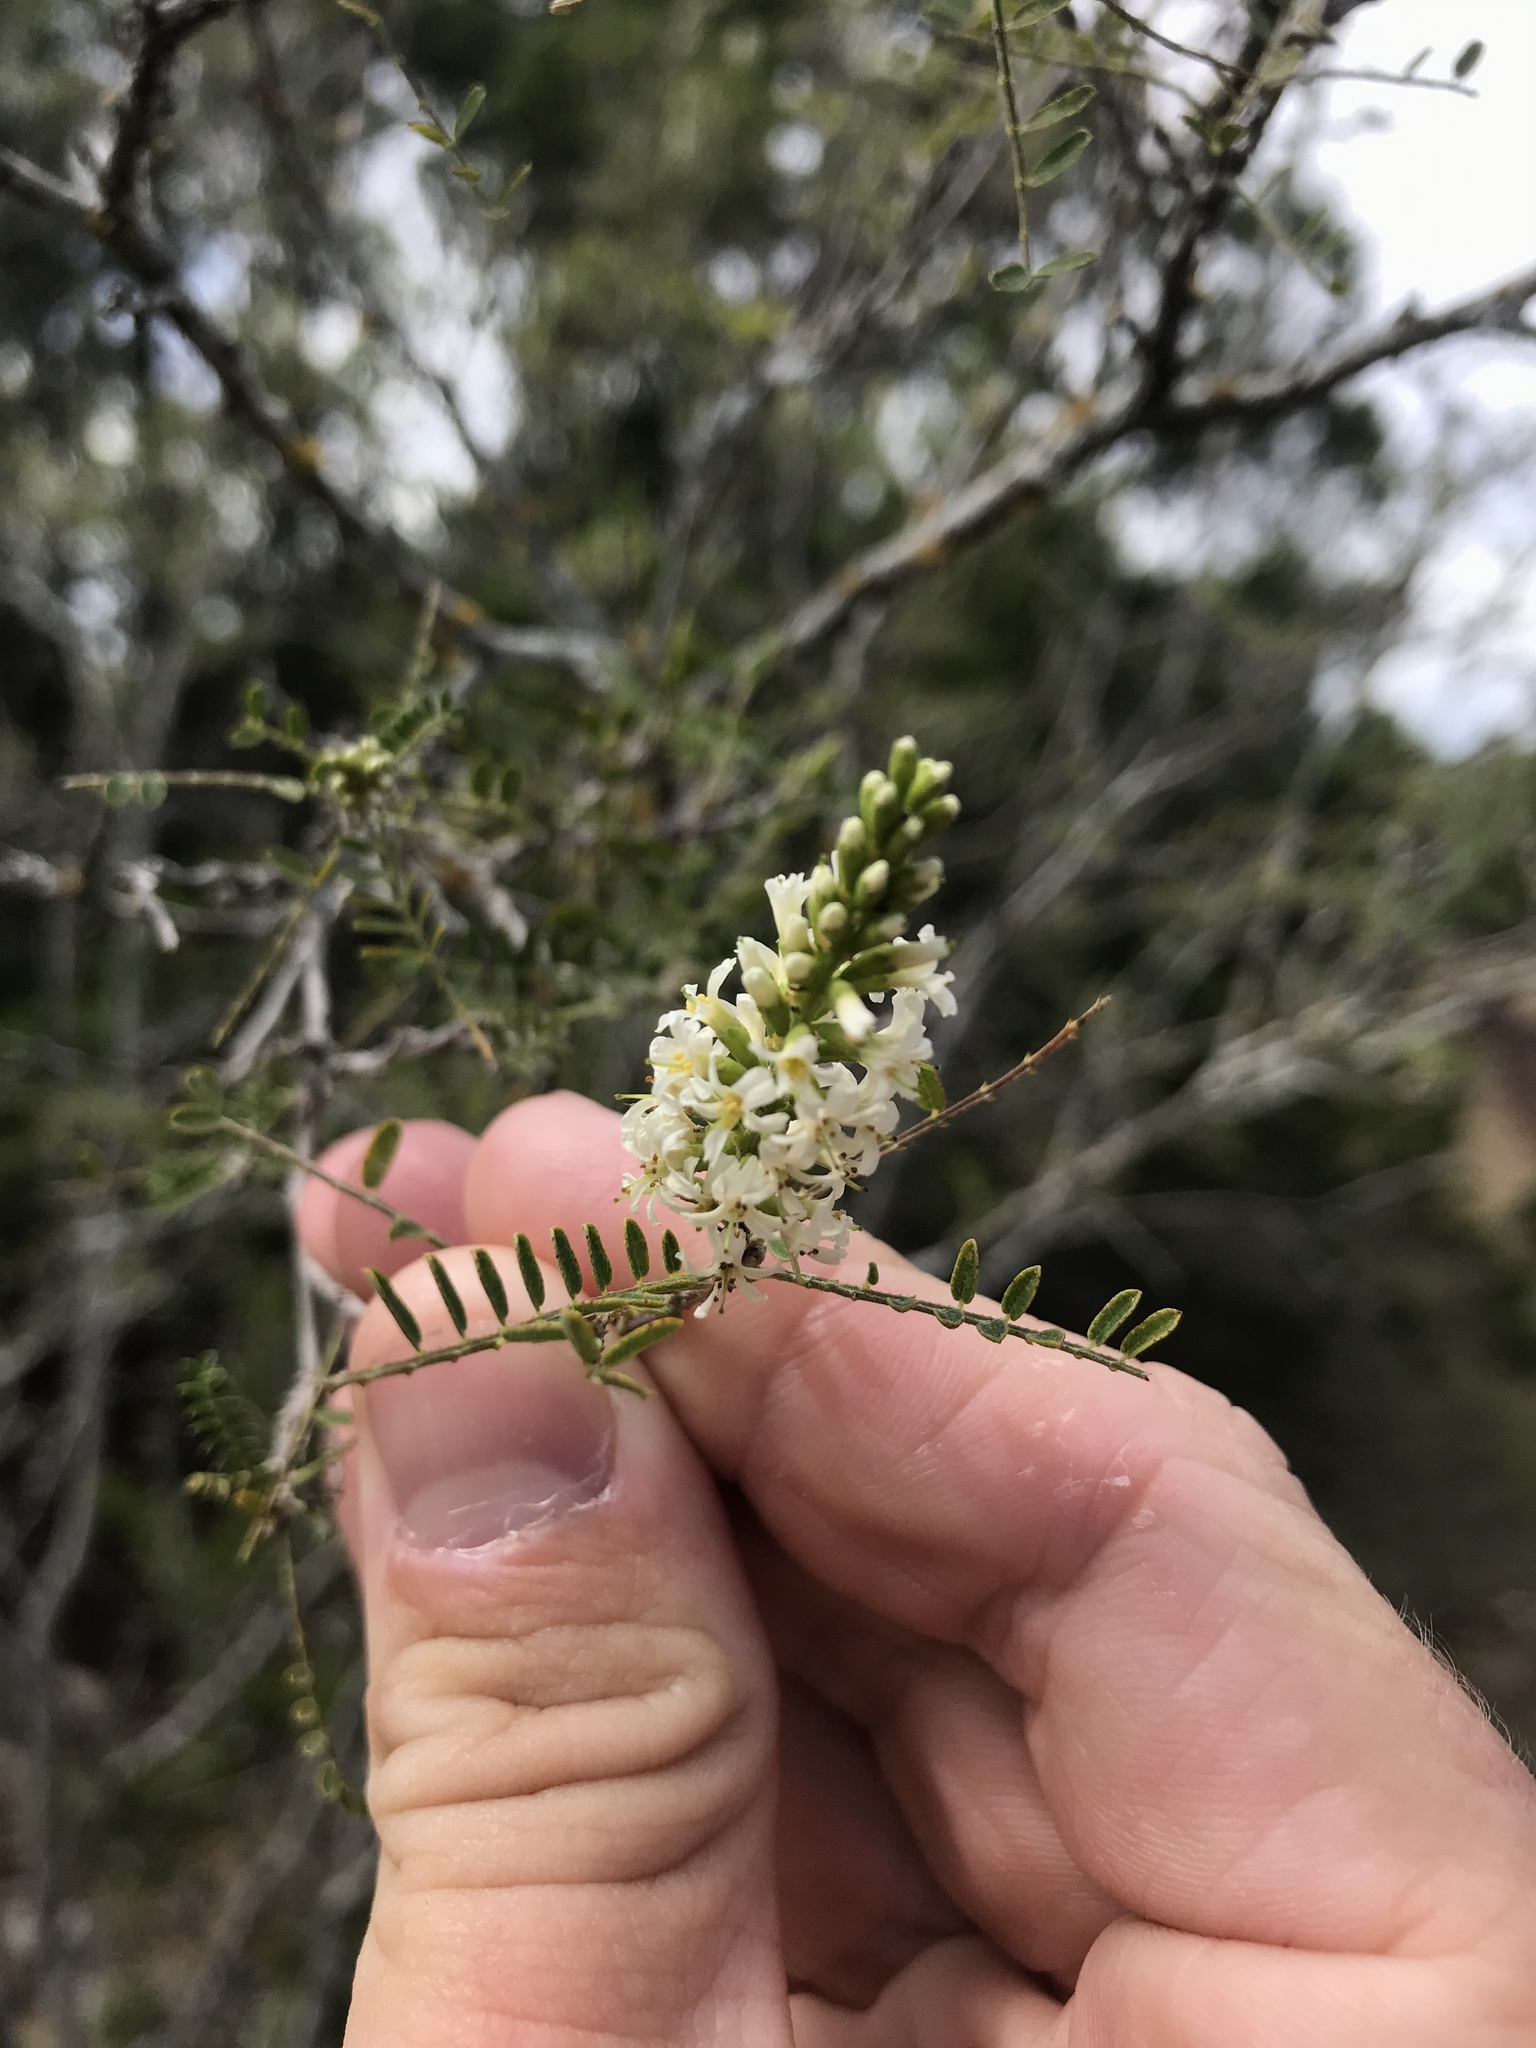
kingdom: Plantae
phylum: Tracheophyta
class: Magnoliopsida
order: Fabales
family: Fabaceae
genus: Eysenhardtia
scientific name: Eysenhardtia texana
